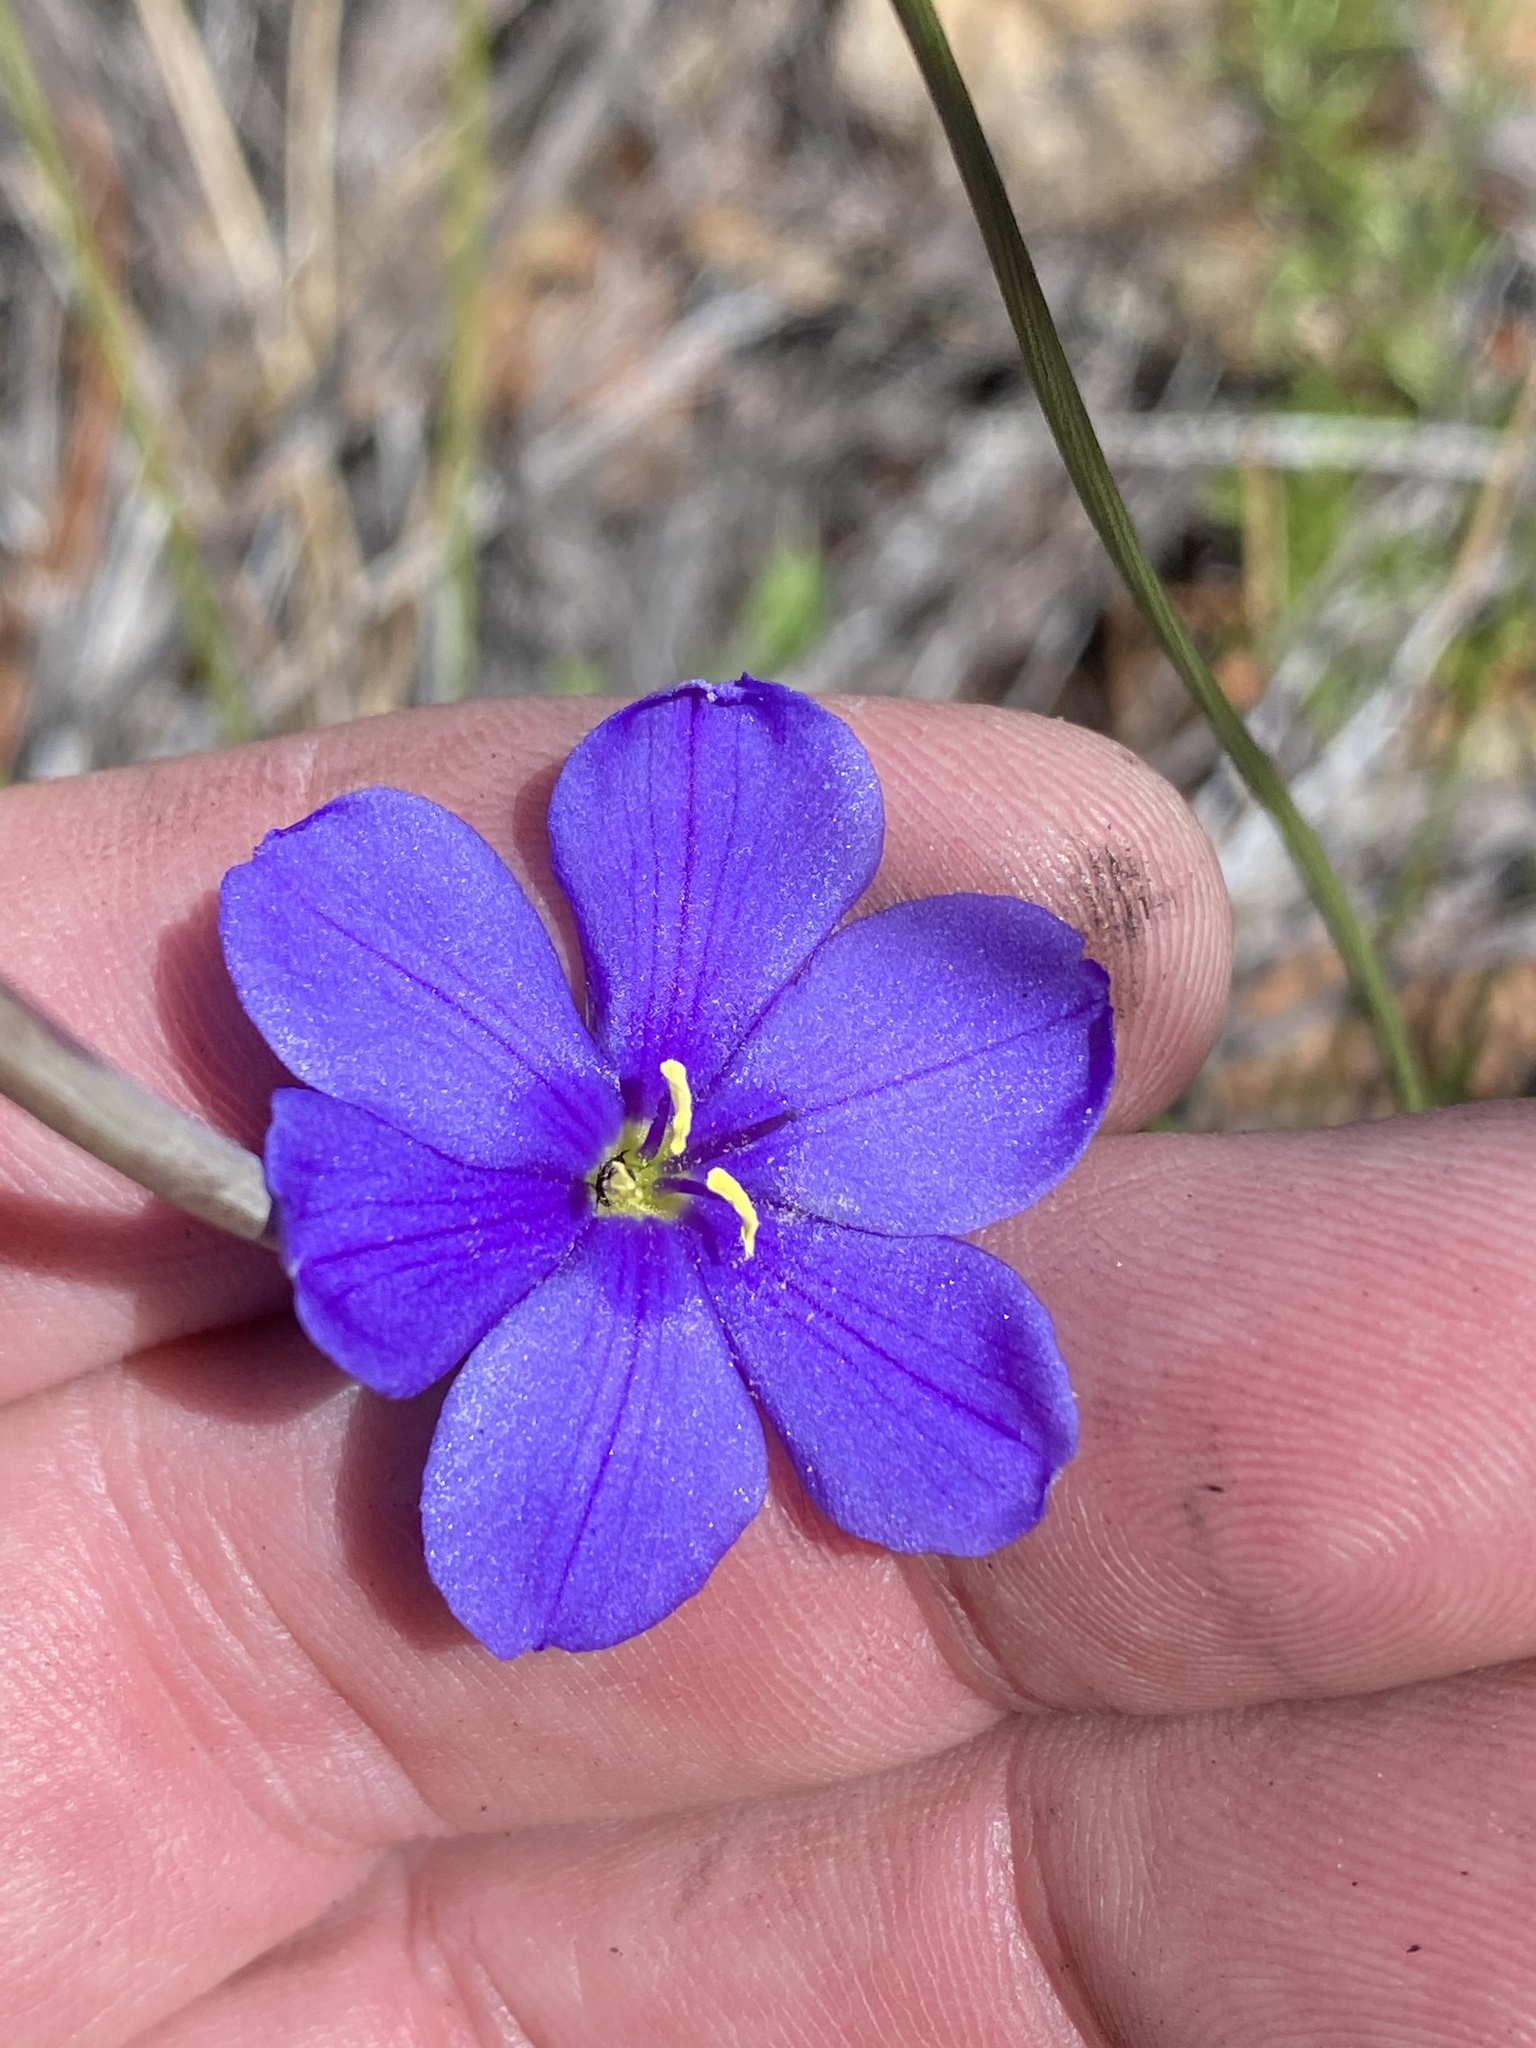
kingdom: Plantae
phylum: Tracheophyta
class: Liliopsida
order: Asparagales
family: Iridaceae
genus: Aristea
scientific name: Aristea juncifolia
